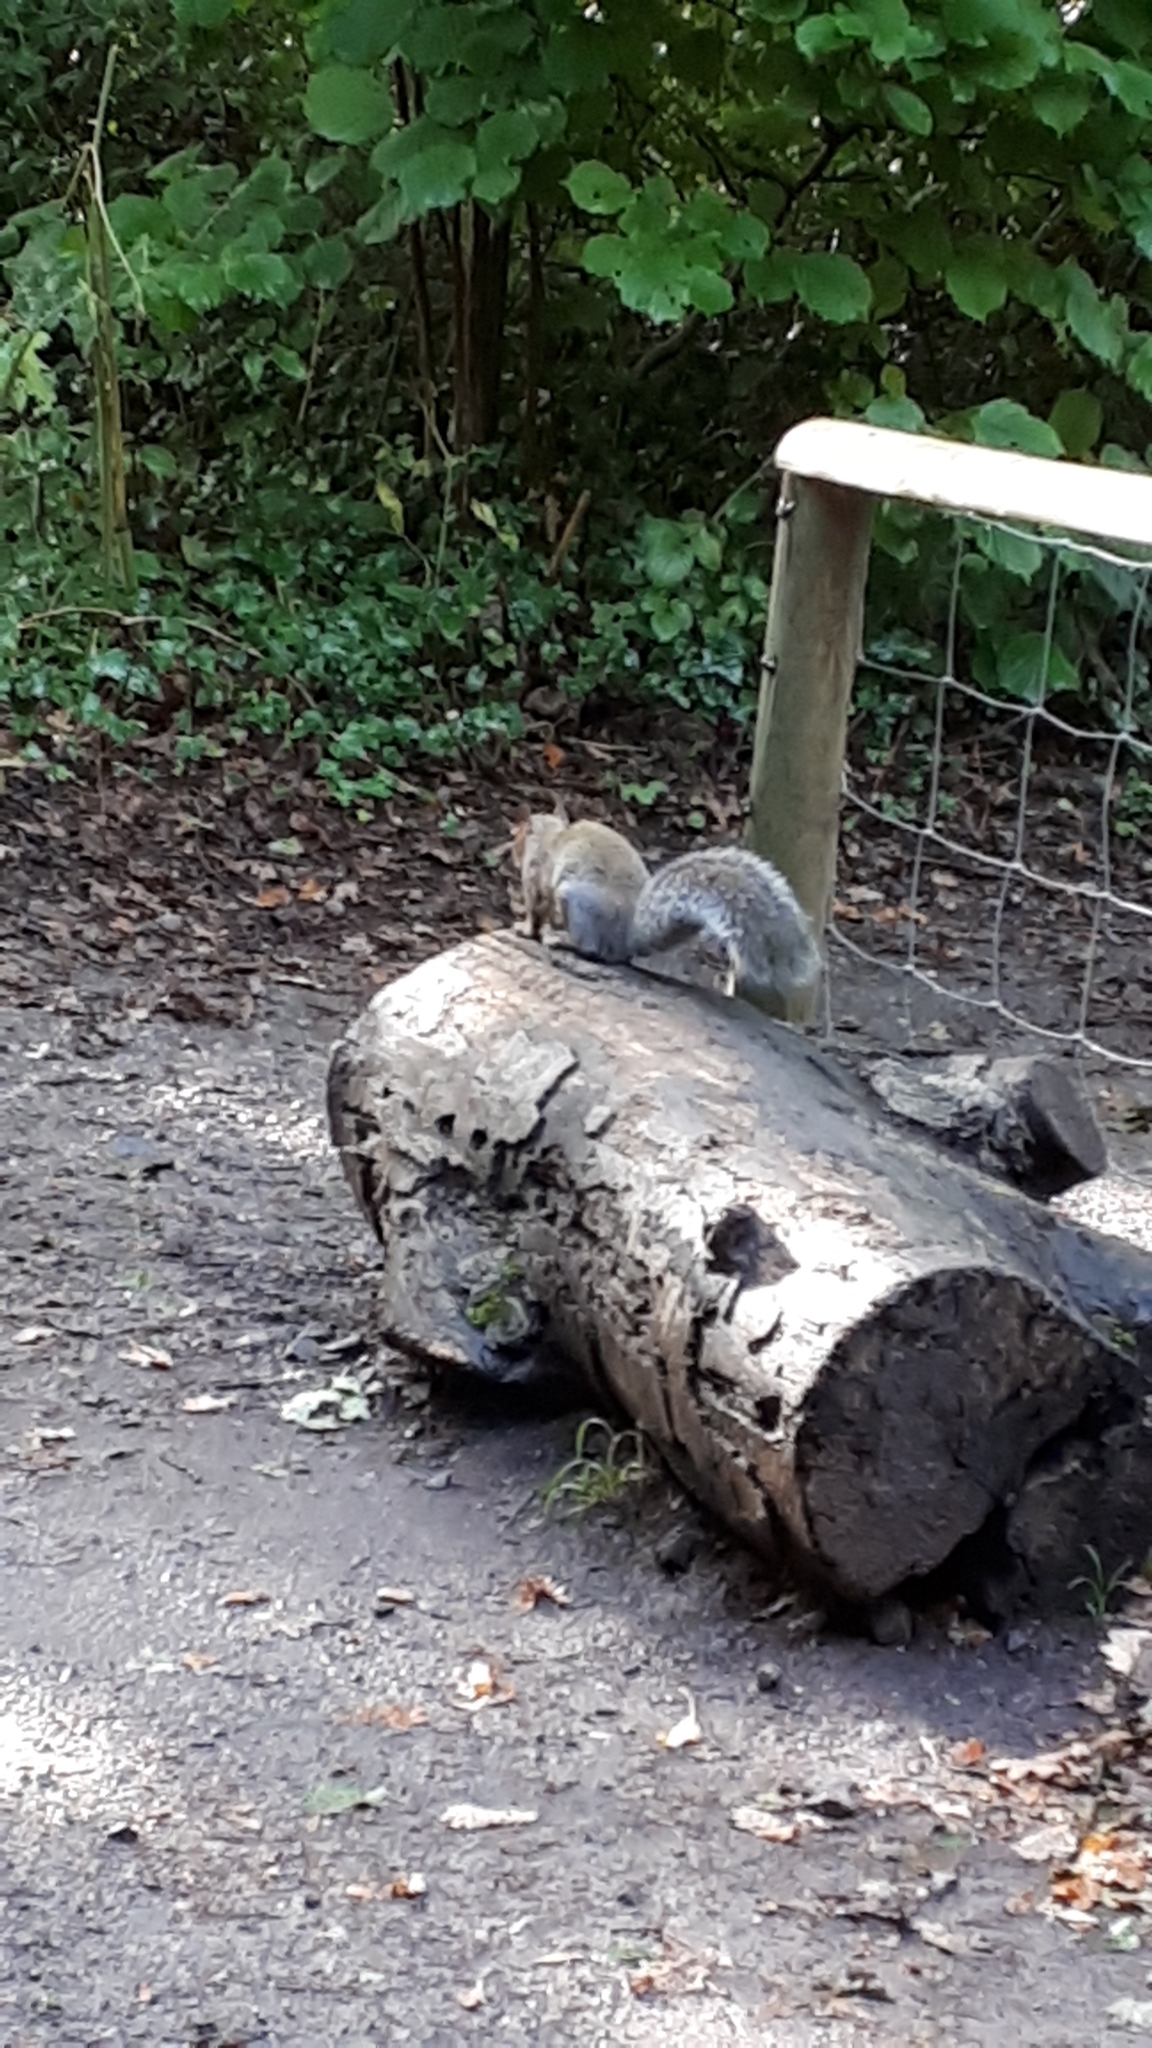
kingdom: Animalia
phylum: Chordata
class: Mammalia
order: Rodentia
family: Sciuridae
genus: Sciurus
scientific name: Sciurus carolinensis
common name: Eastern gray squirrel
